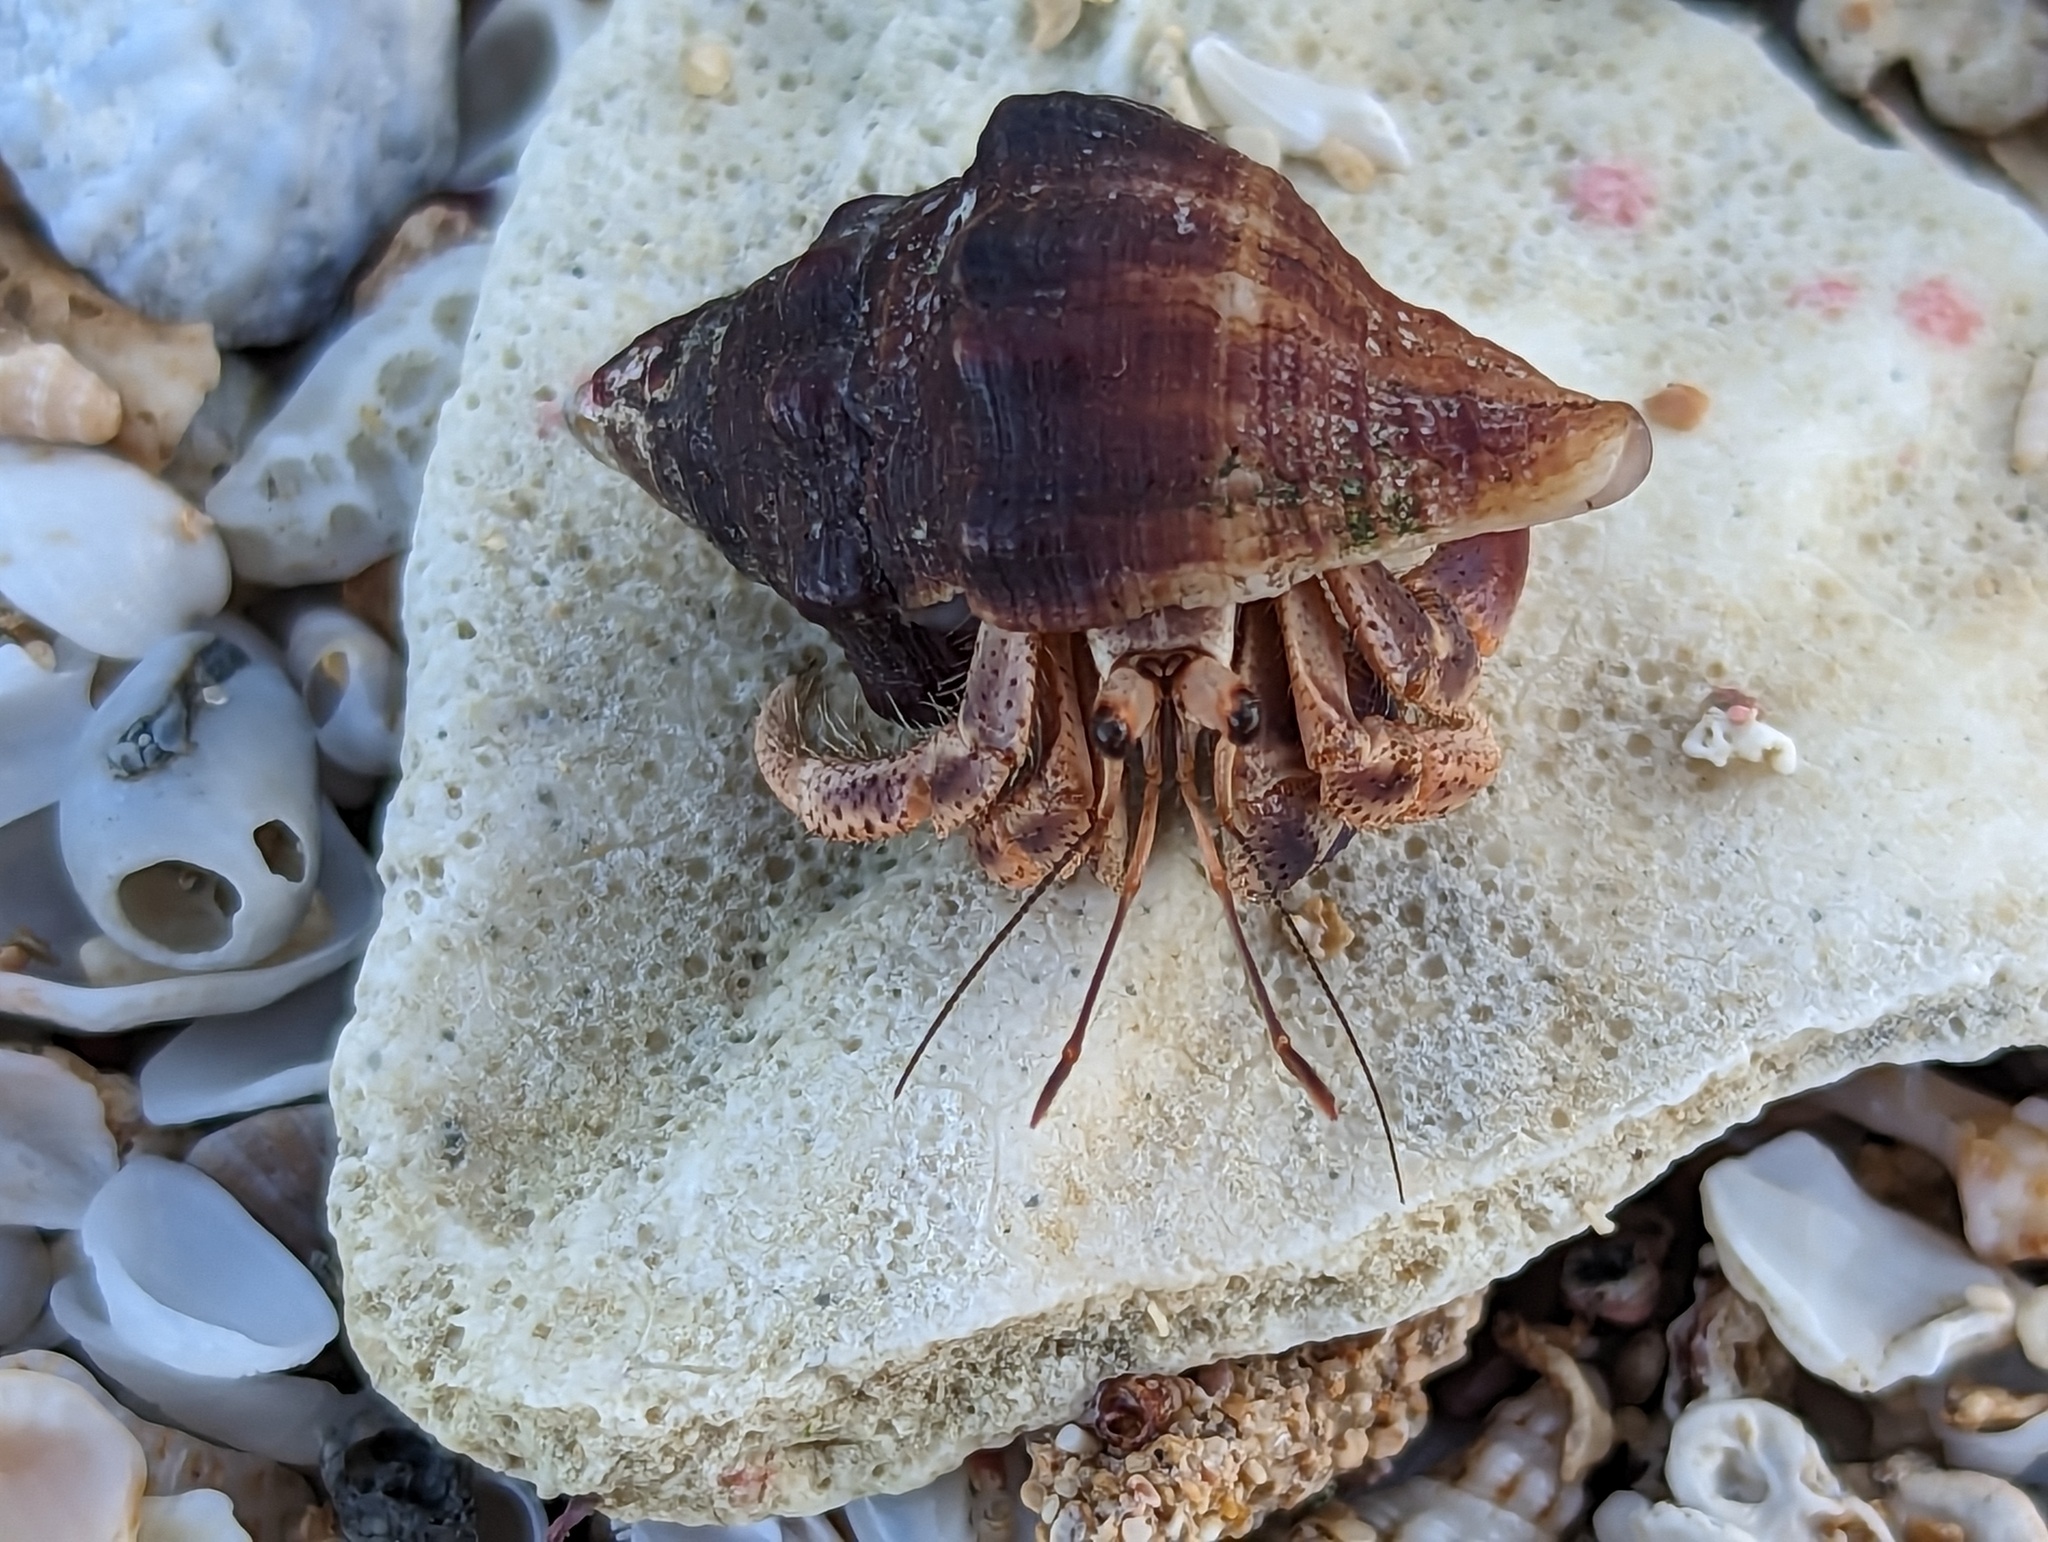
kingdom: Animalia
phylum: Arthropoda
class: Malacostraca
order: Decapoda
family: Coenobitidae
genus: Coenobita
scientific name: Coenobita clypeatus
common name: Caribbean hermit crab
